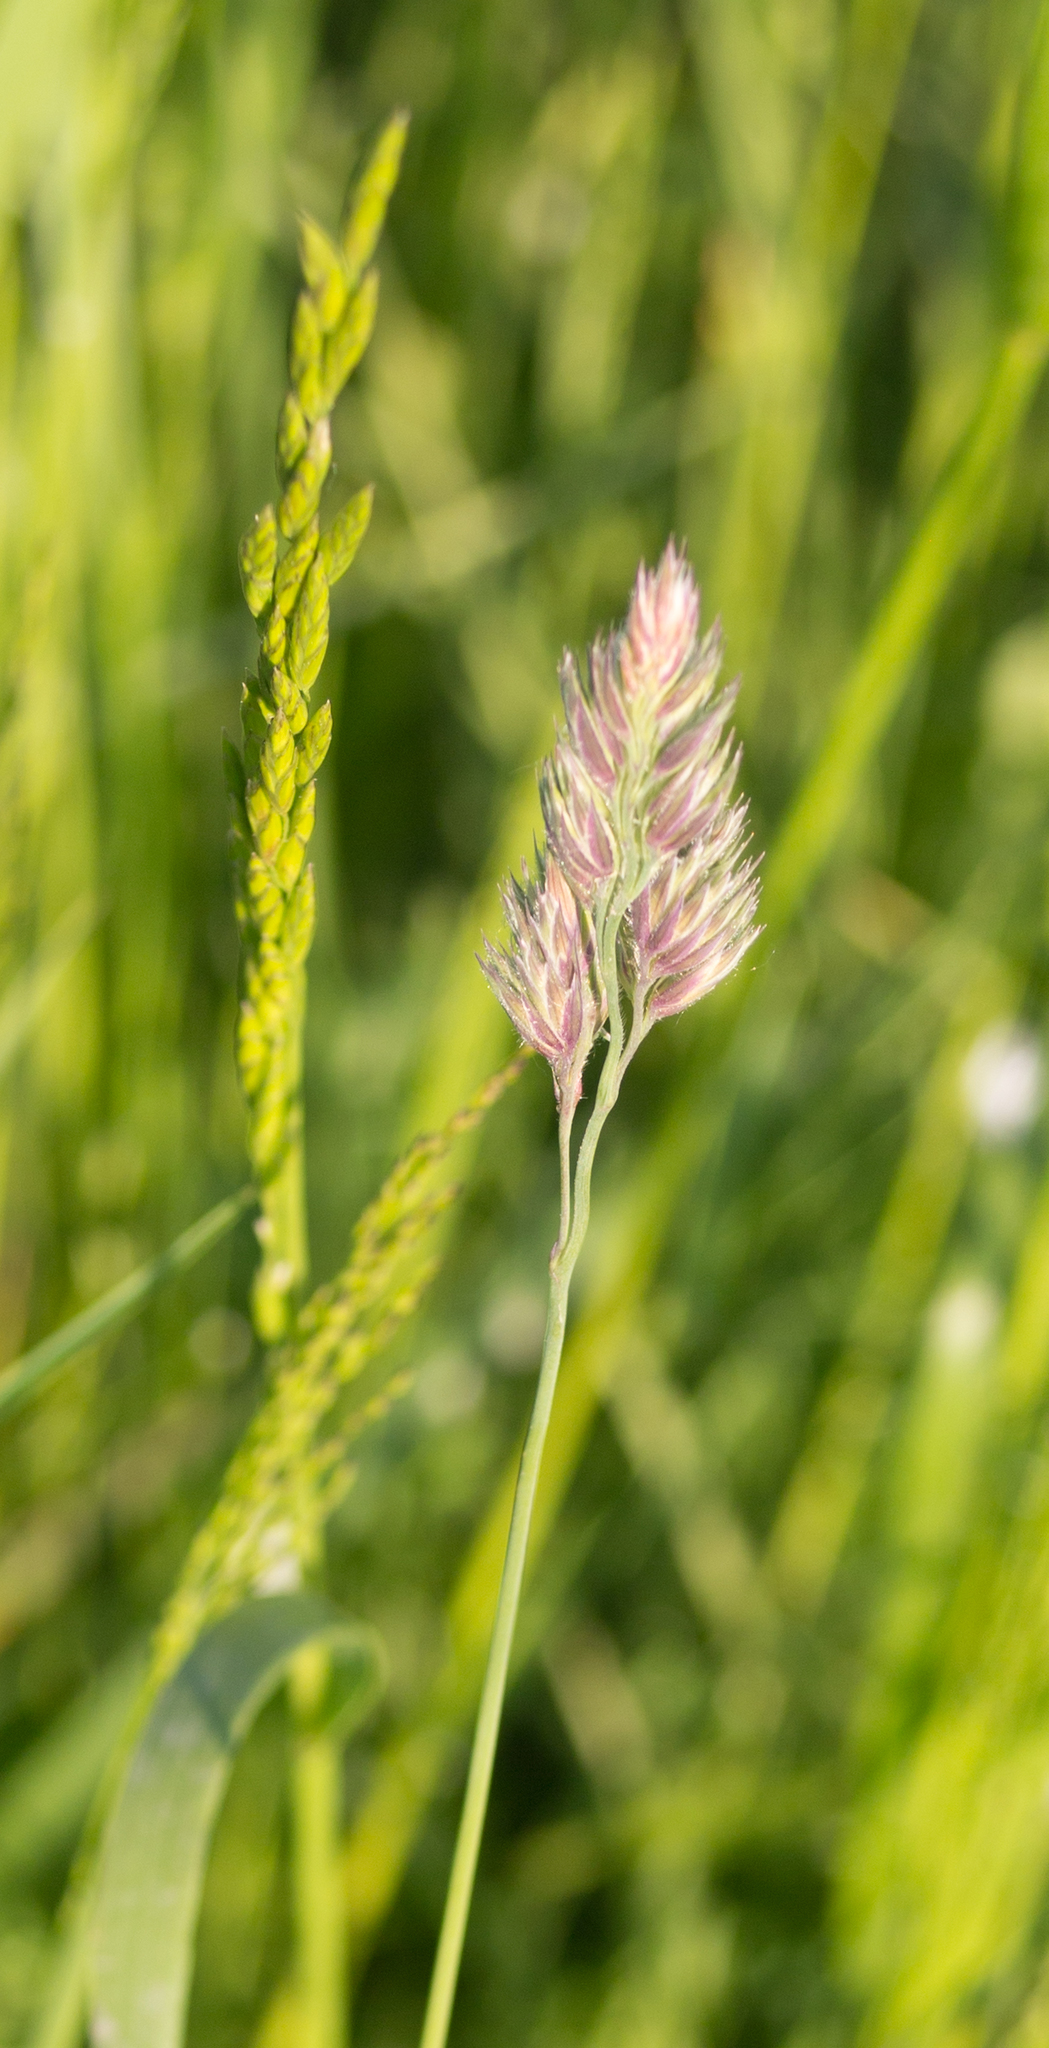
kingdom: Plantae
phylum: Tracheophyta
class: Liliopsida
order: Poales
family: Poaceae
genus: Dactylis
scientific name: Dactylis glomerata
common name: Orchardgrass
